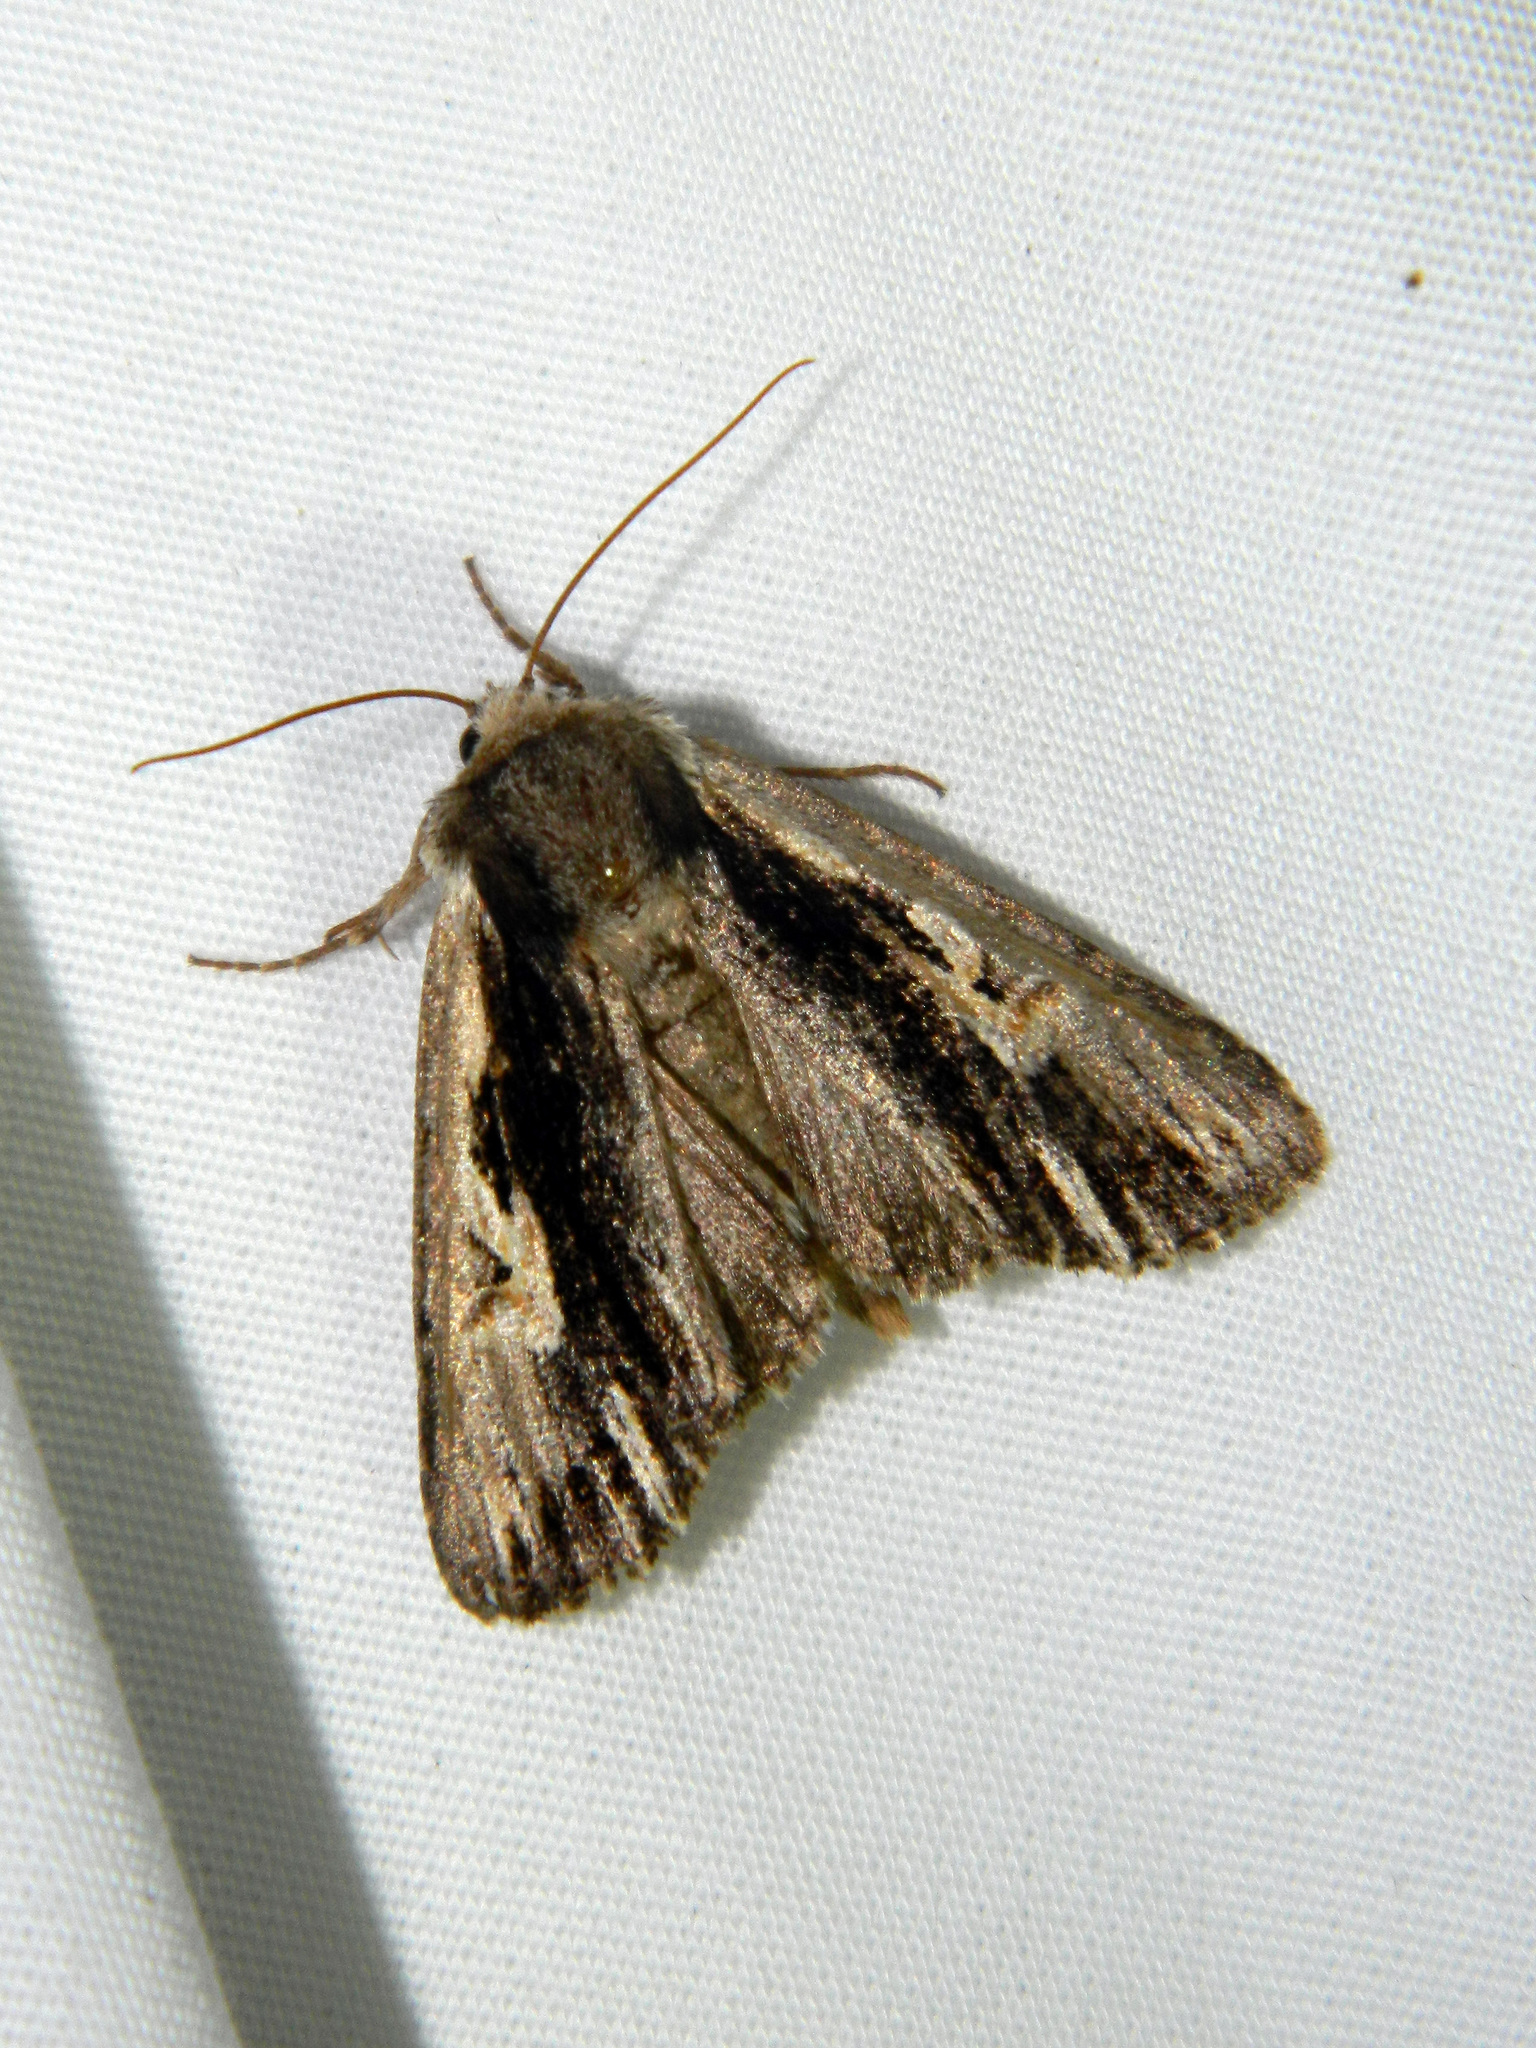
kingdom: Animalia
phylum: Arthropoda
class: Insecta
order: Lepidoptera
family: Noctuidae
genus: Achatia
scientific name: Achatia evicta
